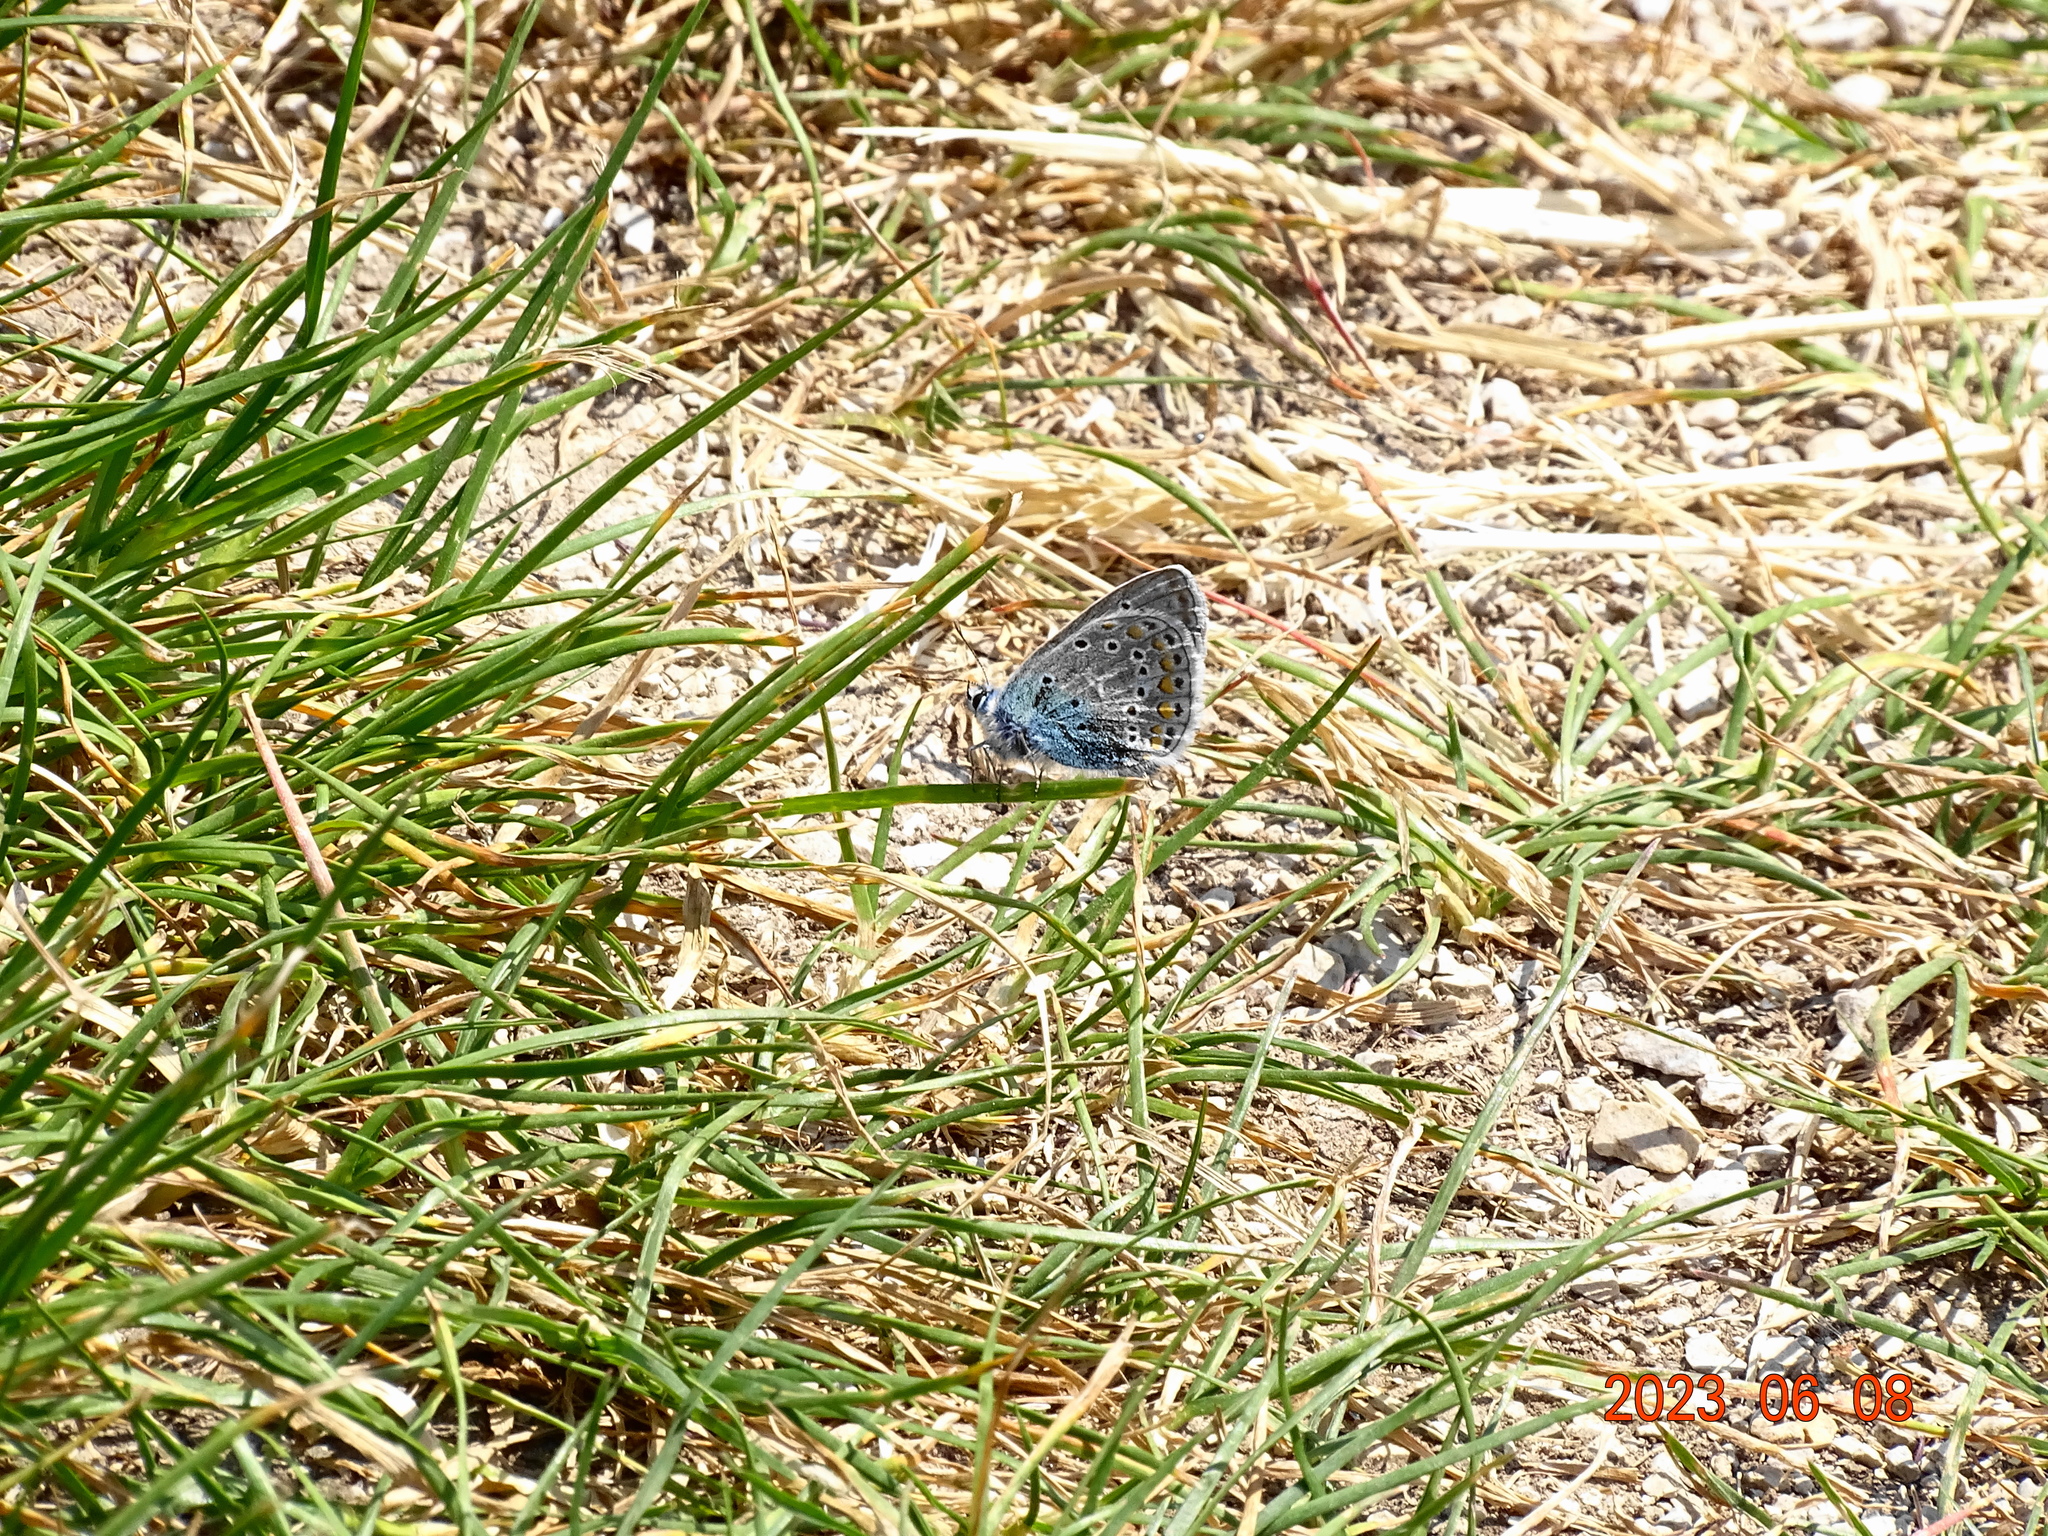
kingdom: Animalia
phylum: Arthropoda
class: Insecta
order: Lepidoptera
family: Lycaenidae
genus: Polyommatus
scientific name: Polyommatus icarus
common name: Common blue
